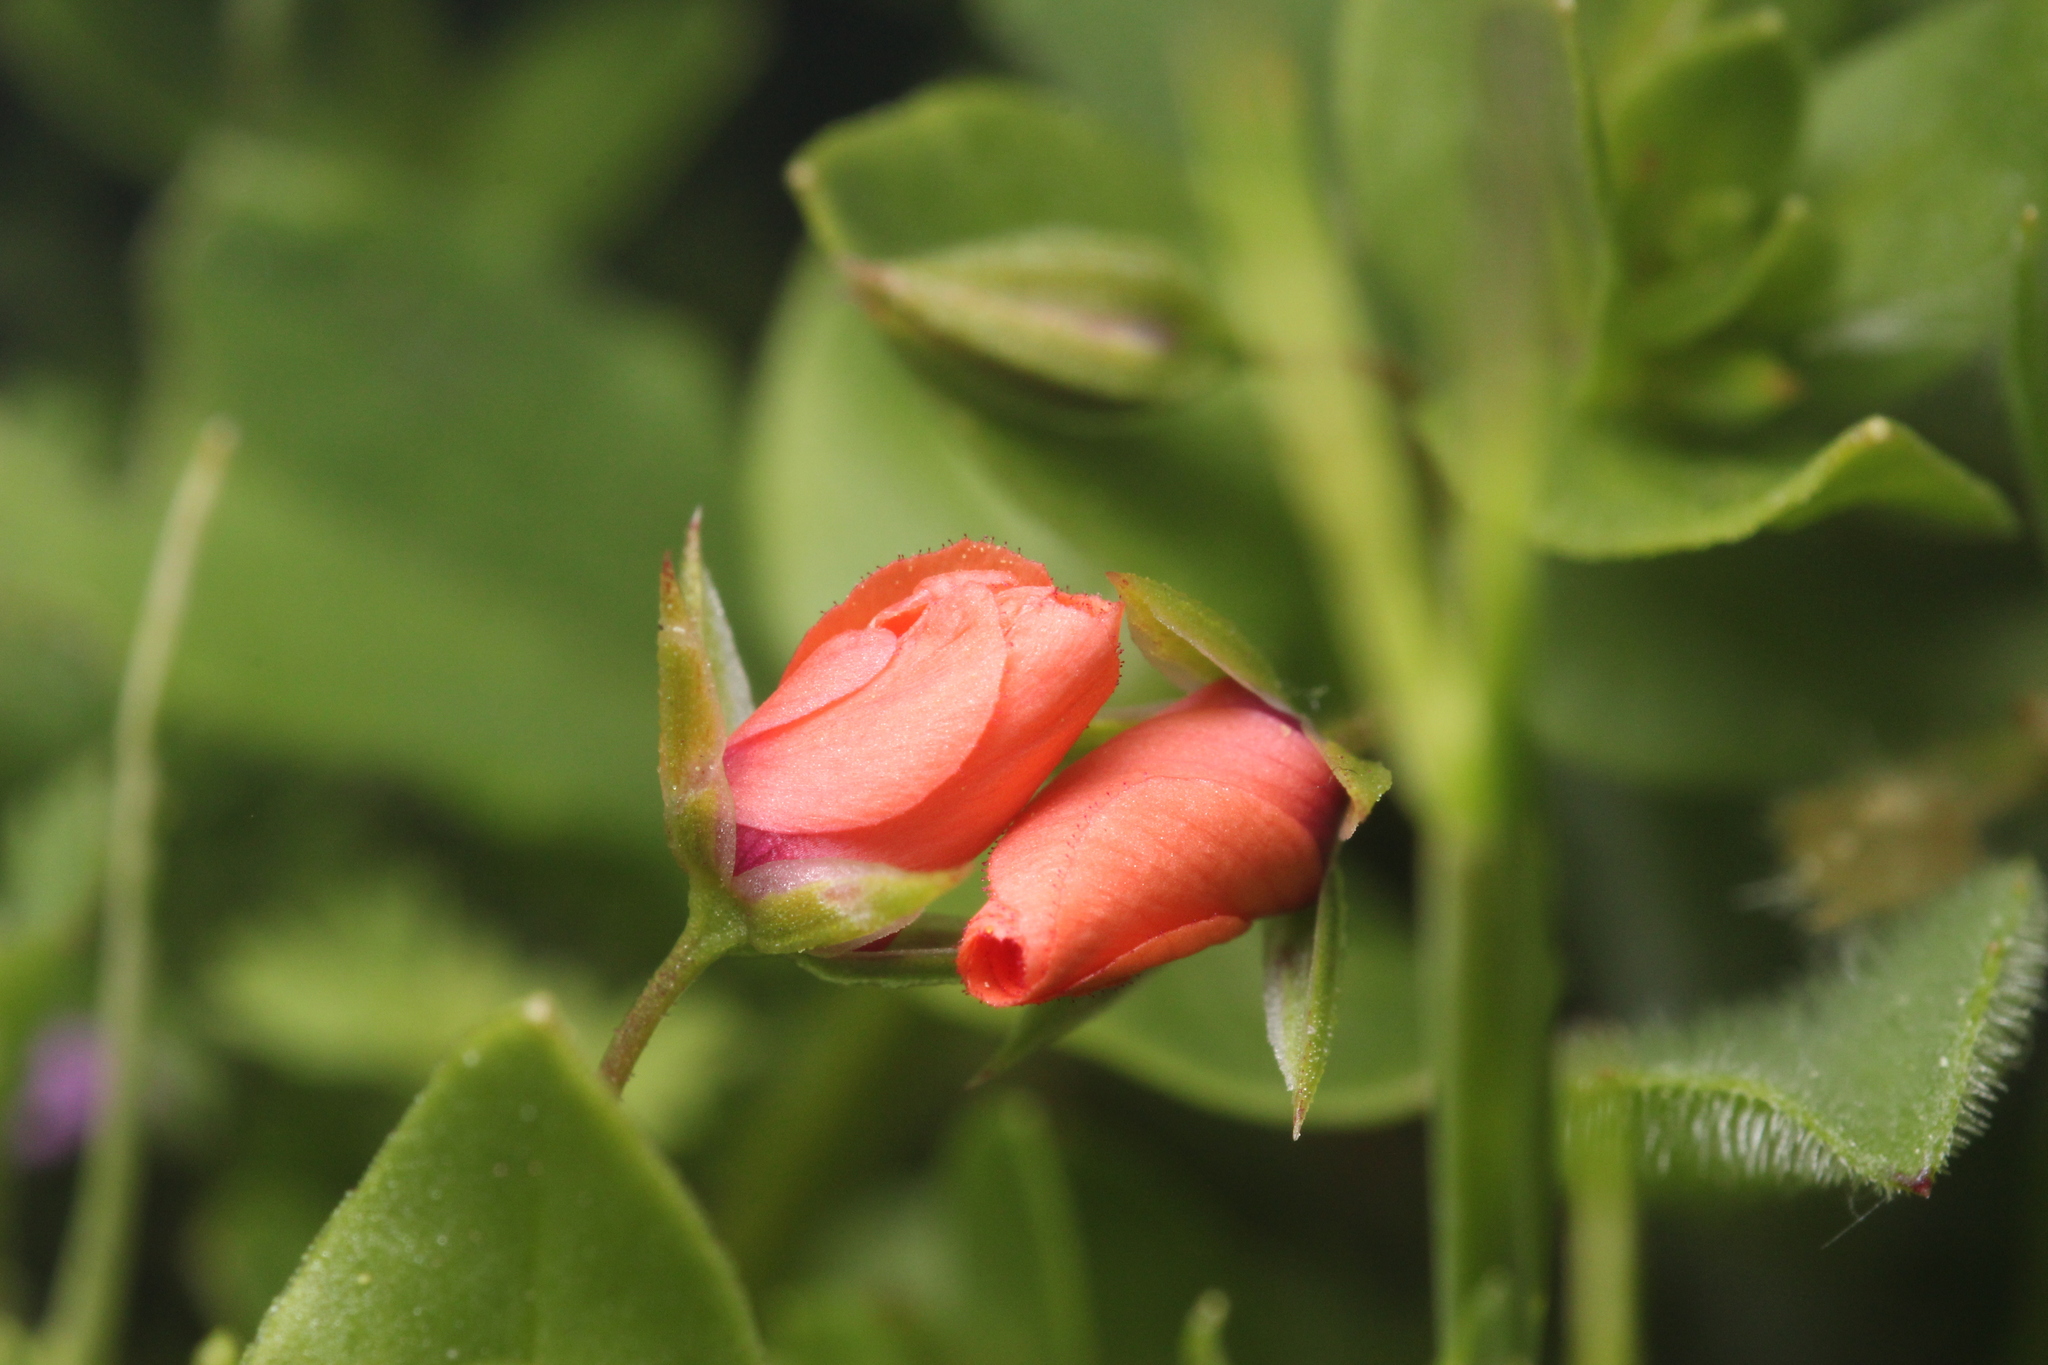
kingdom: Plantae
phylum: Tracheophyta
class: Magnoliopsida
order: Ericales
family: Primulaceae
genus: Lysimachia
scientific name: Lysimachia arvensis
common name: Scarlet pimpernel
